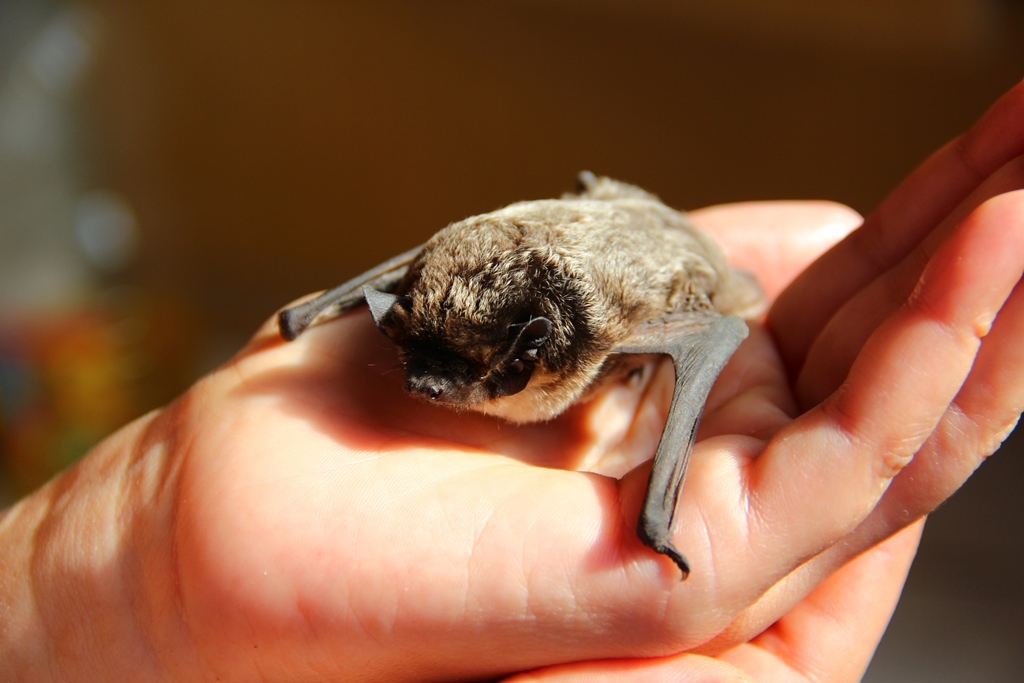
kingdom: Animalia
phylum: Chordata
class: Mammalia
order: Chiroptera
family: Vespertilionidae
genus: Vespertilio
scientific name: Vespertilio murinus
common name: Particolored bat
